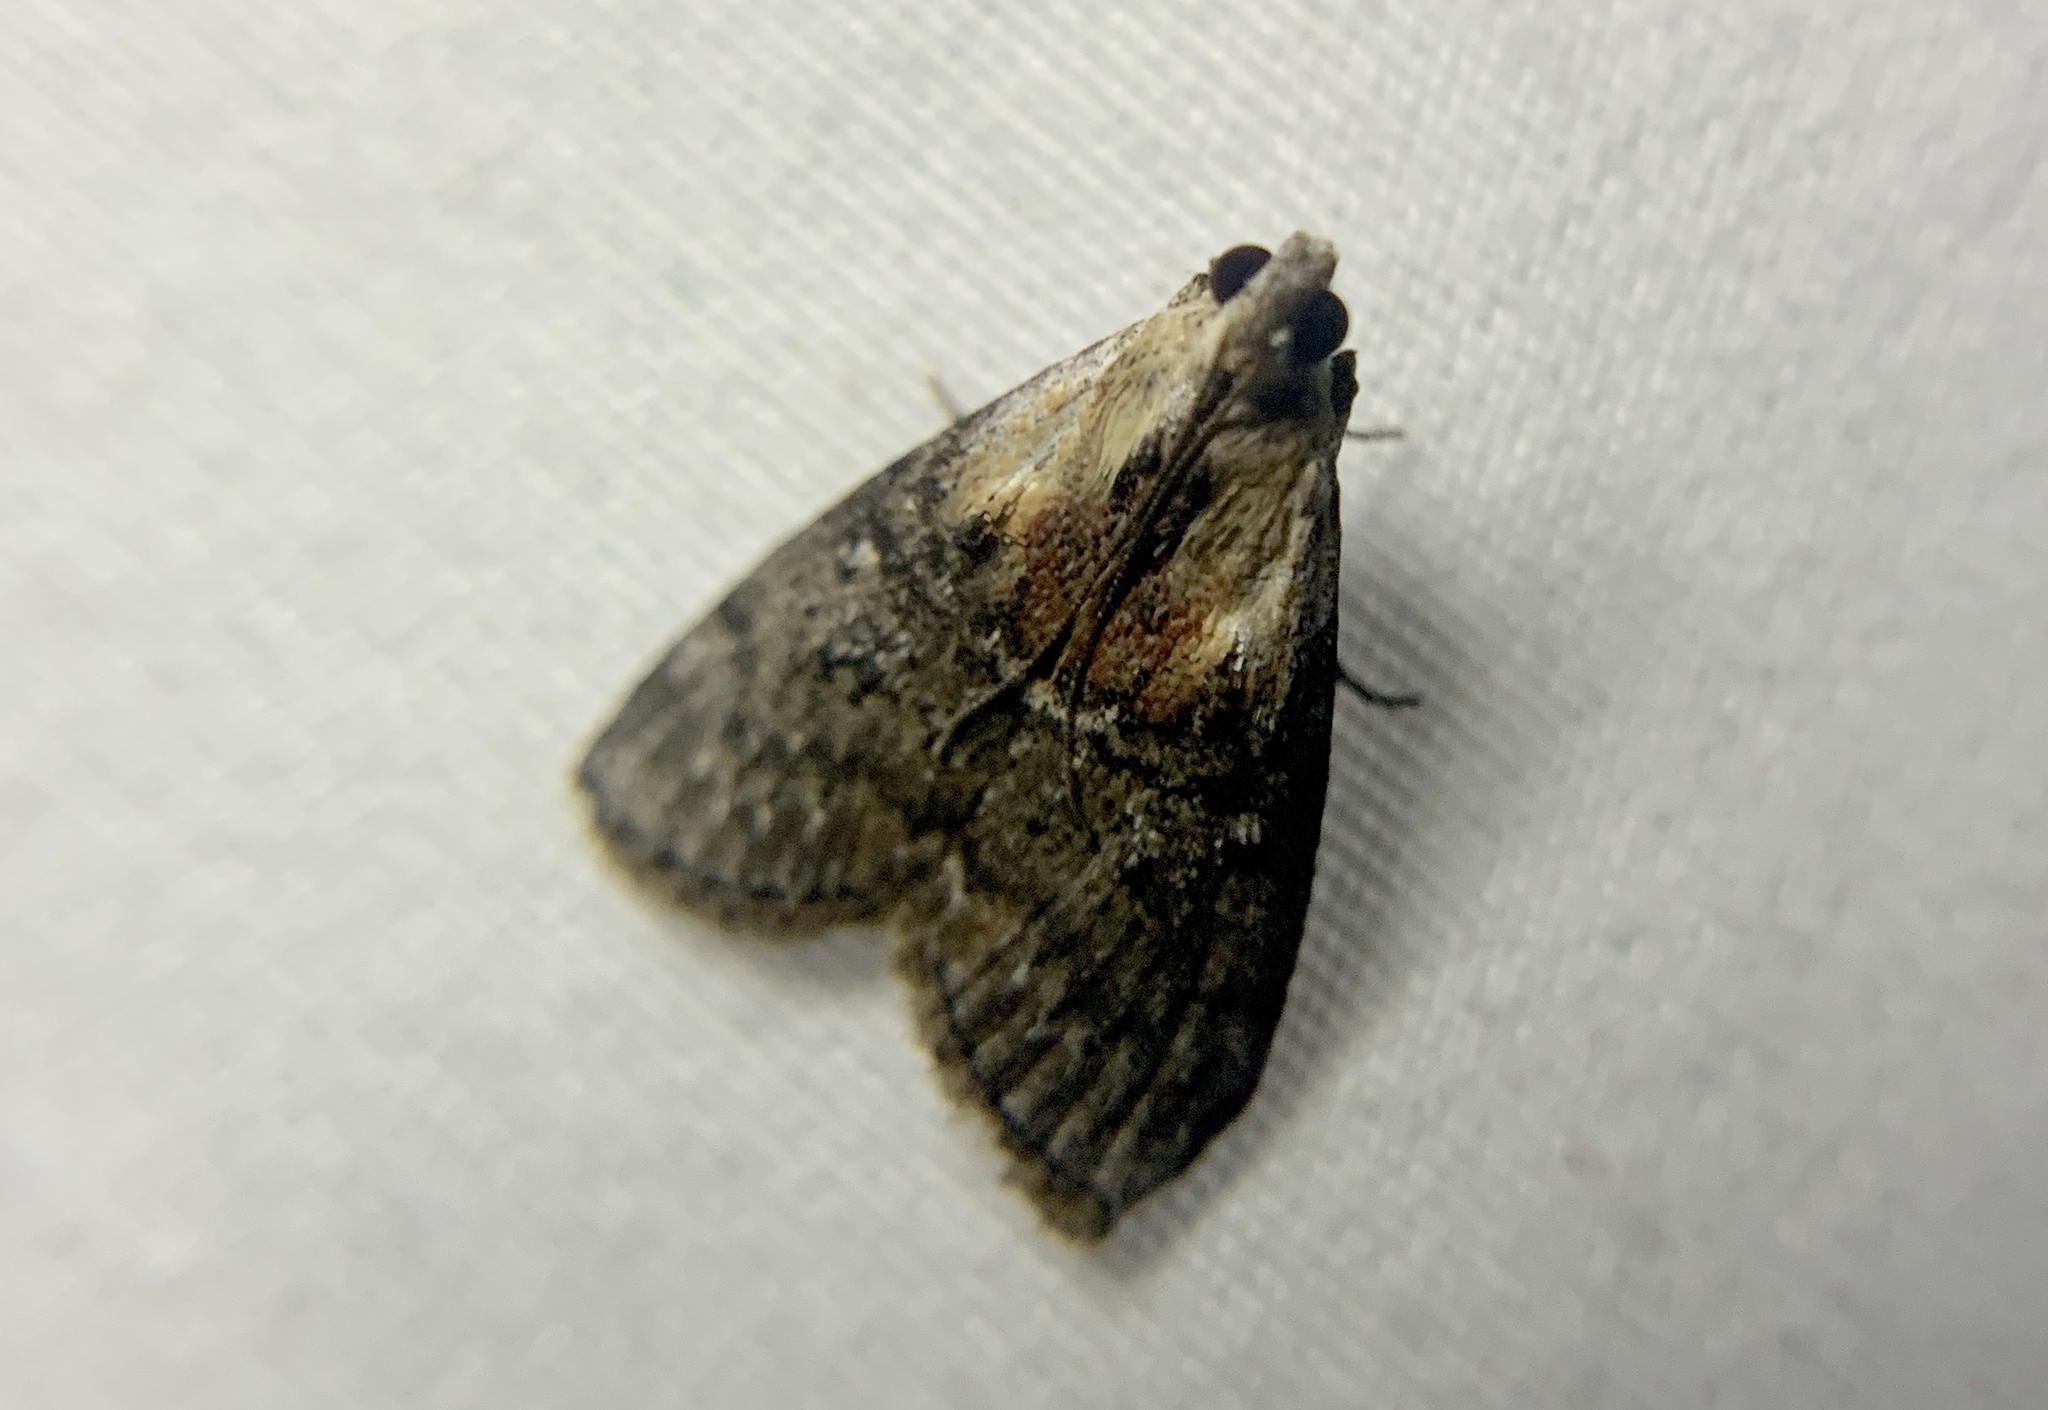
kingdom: Animalia
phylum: Arthropoda
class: Insecta
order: Lepidoptera
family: Pyralidae
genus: Pococera
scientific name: Pococera expandens
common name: Striped oak webworm moth
